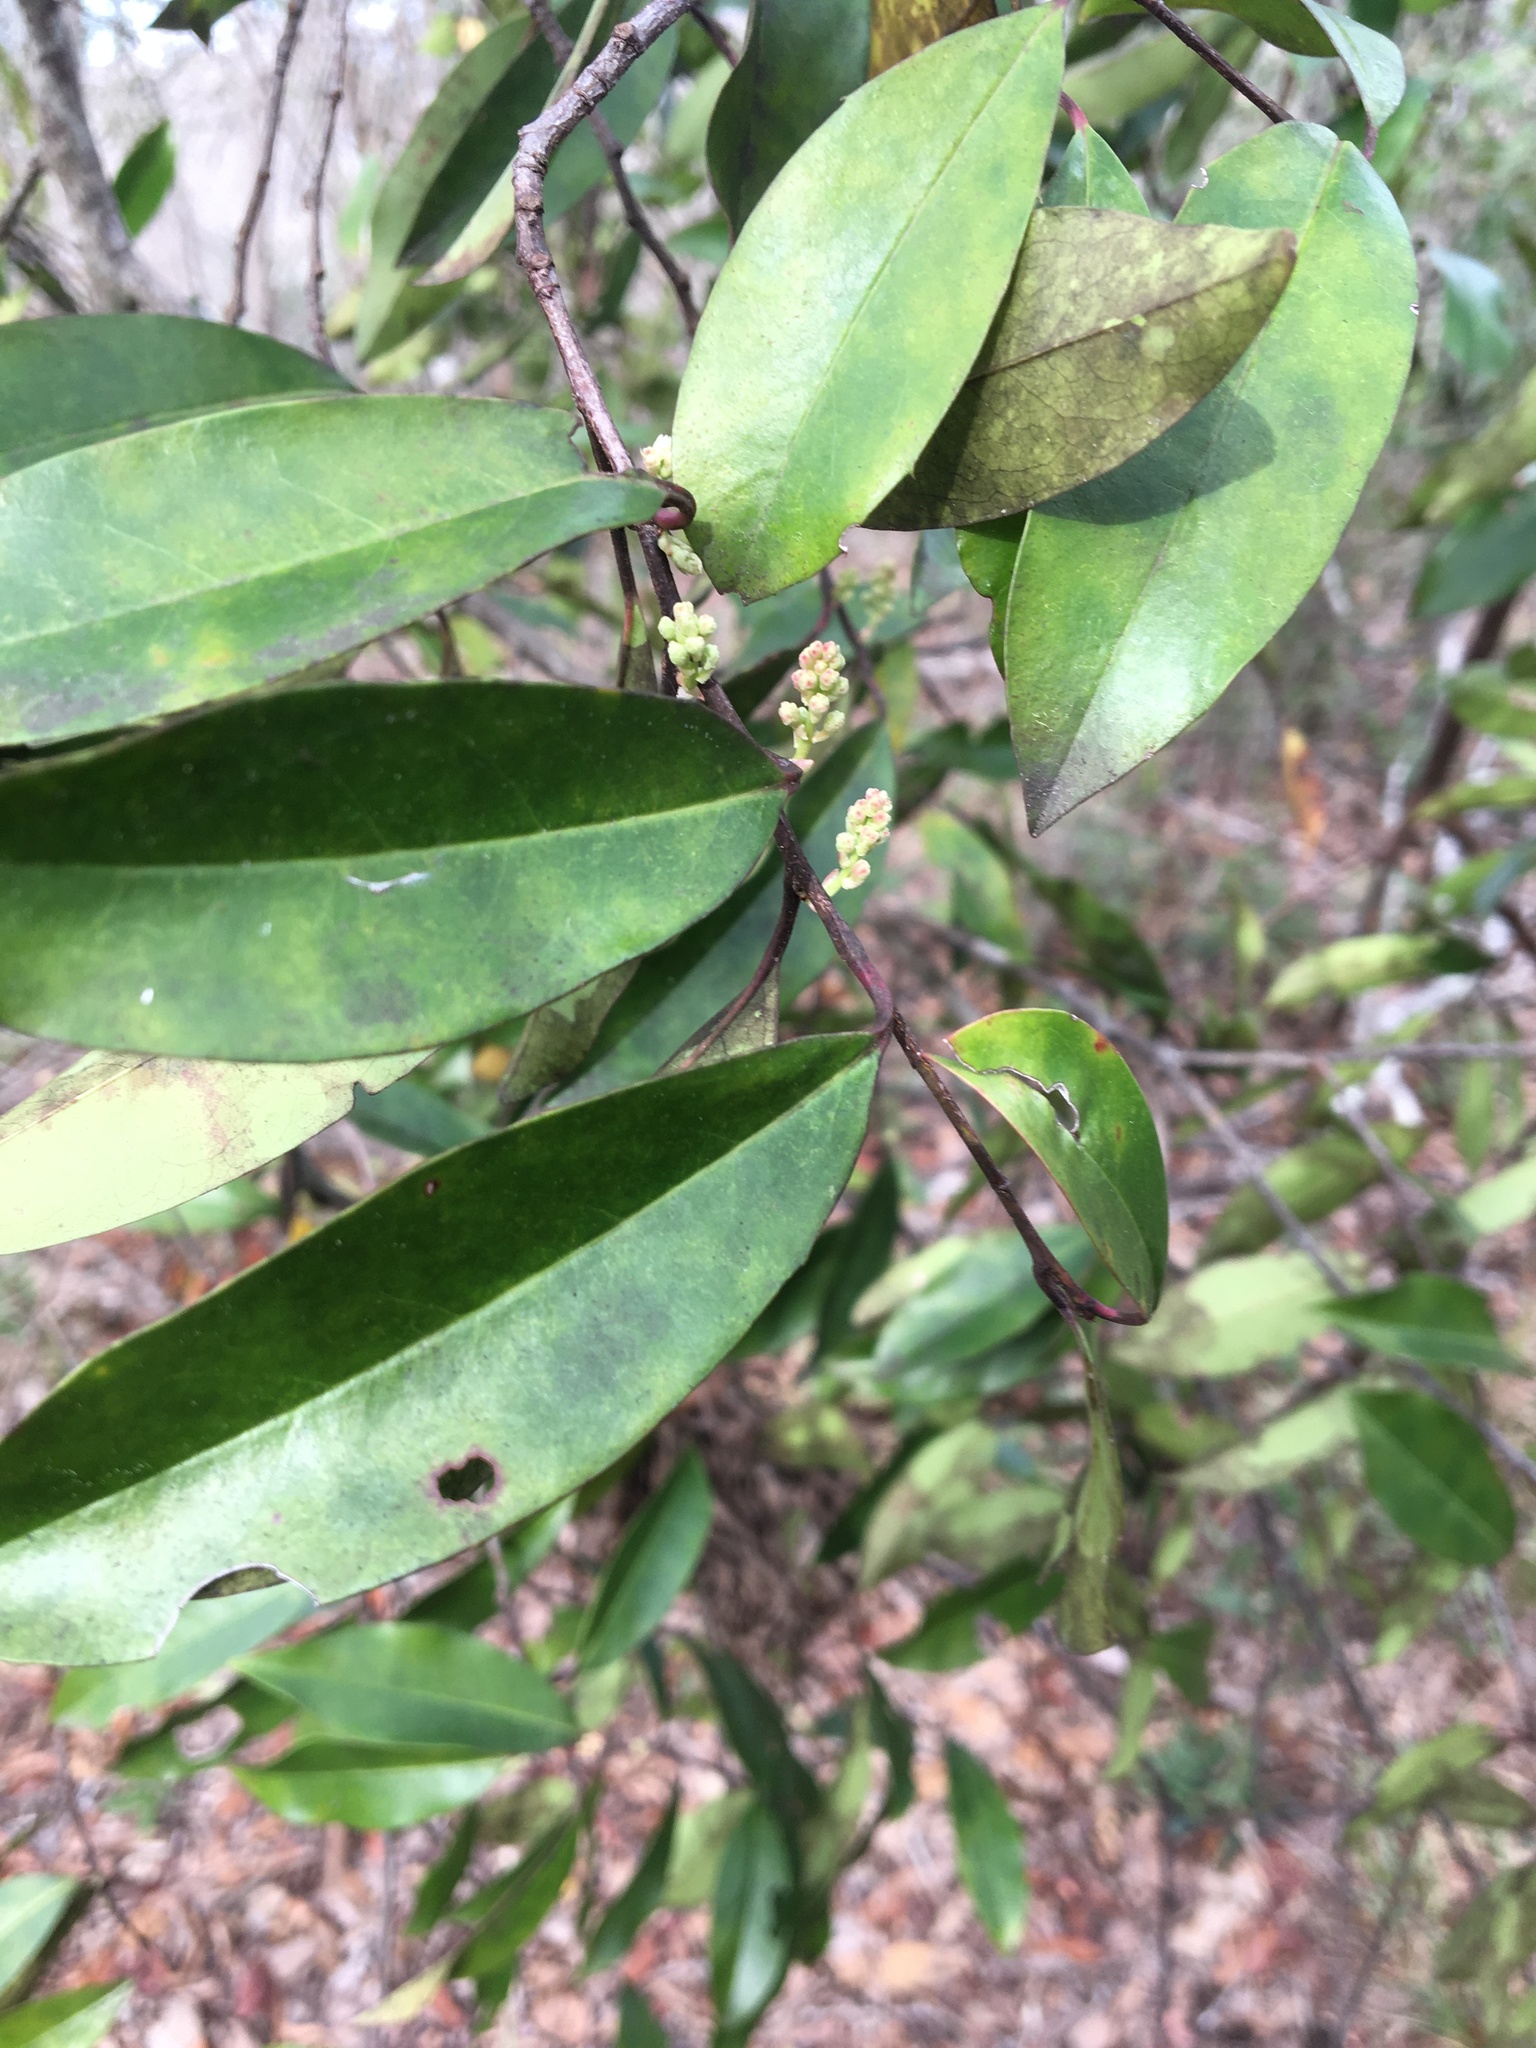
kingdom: Plantae
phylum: Tracheophyta
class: Magnoliopsida
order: Rosales
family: Rosaceae
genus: Prunus
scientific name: Prunus caroliniana
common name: Carolina laurel cherry
